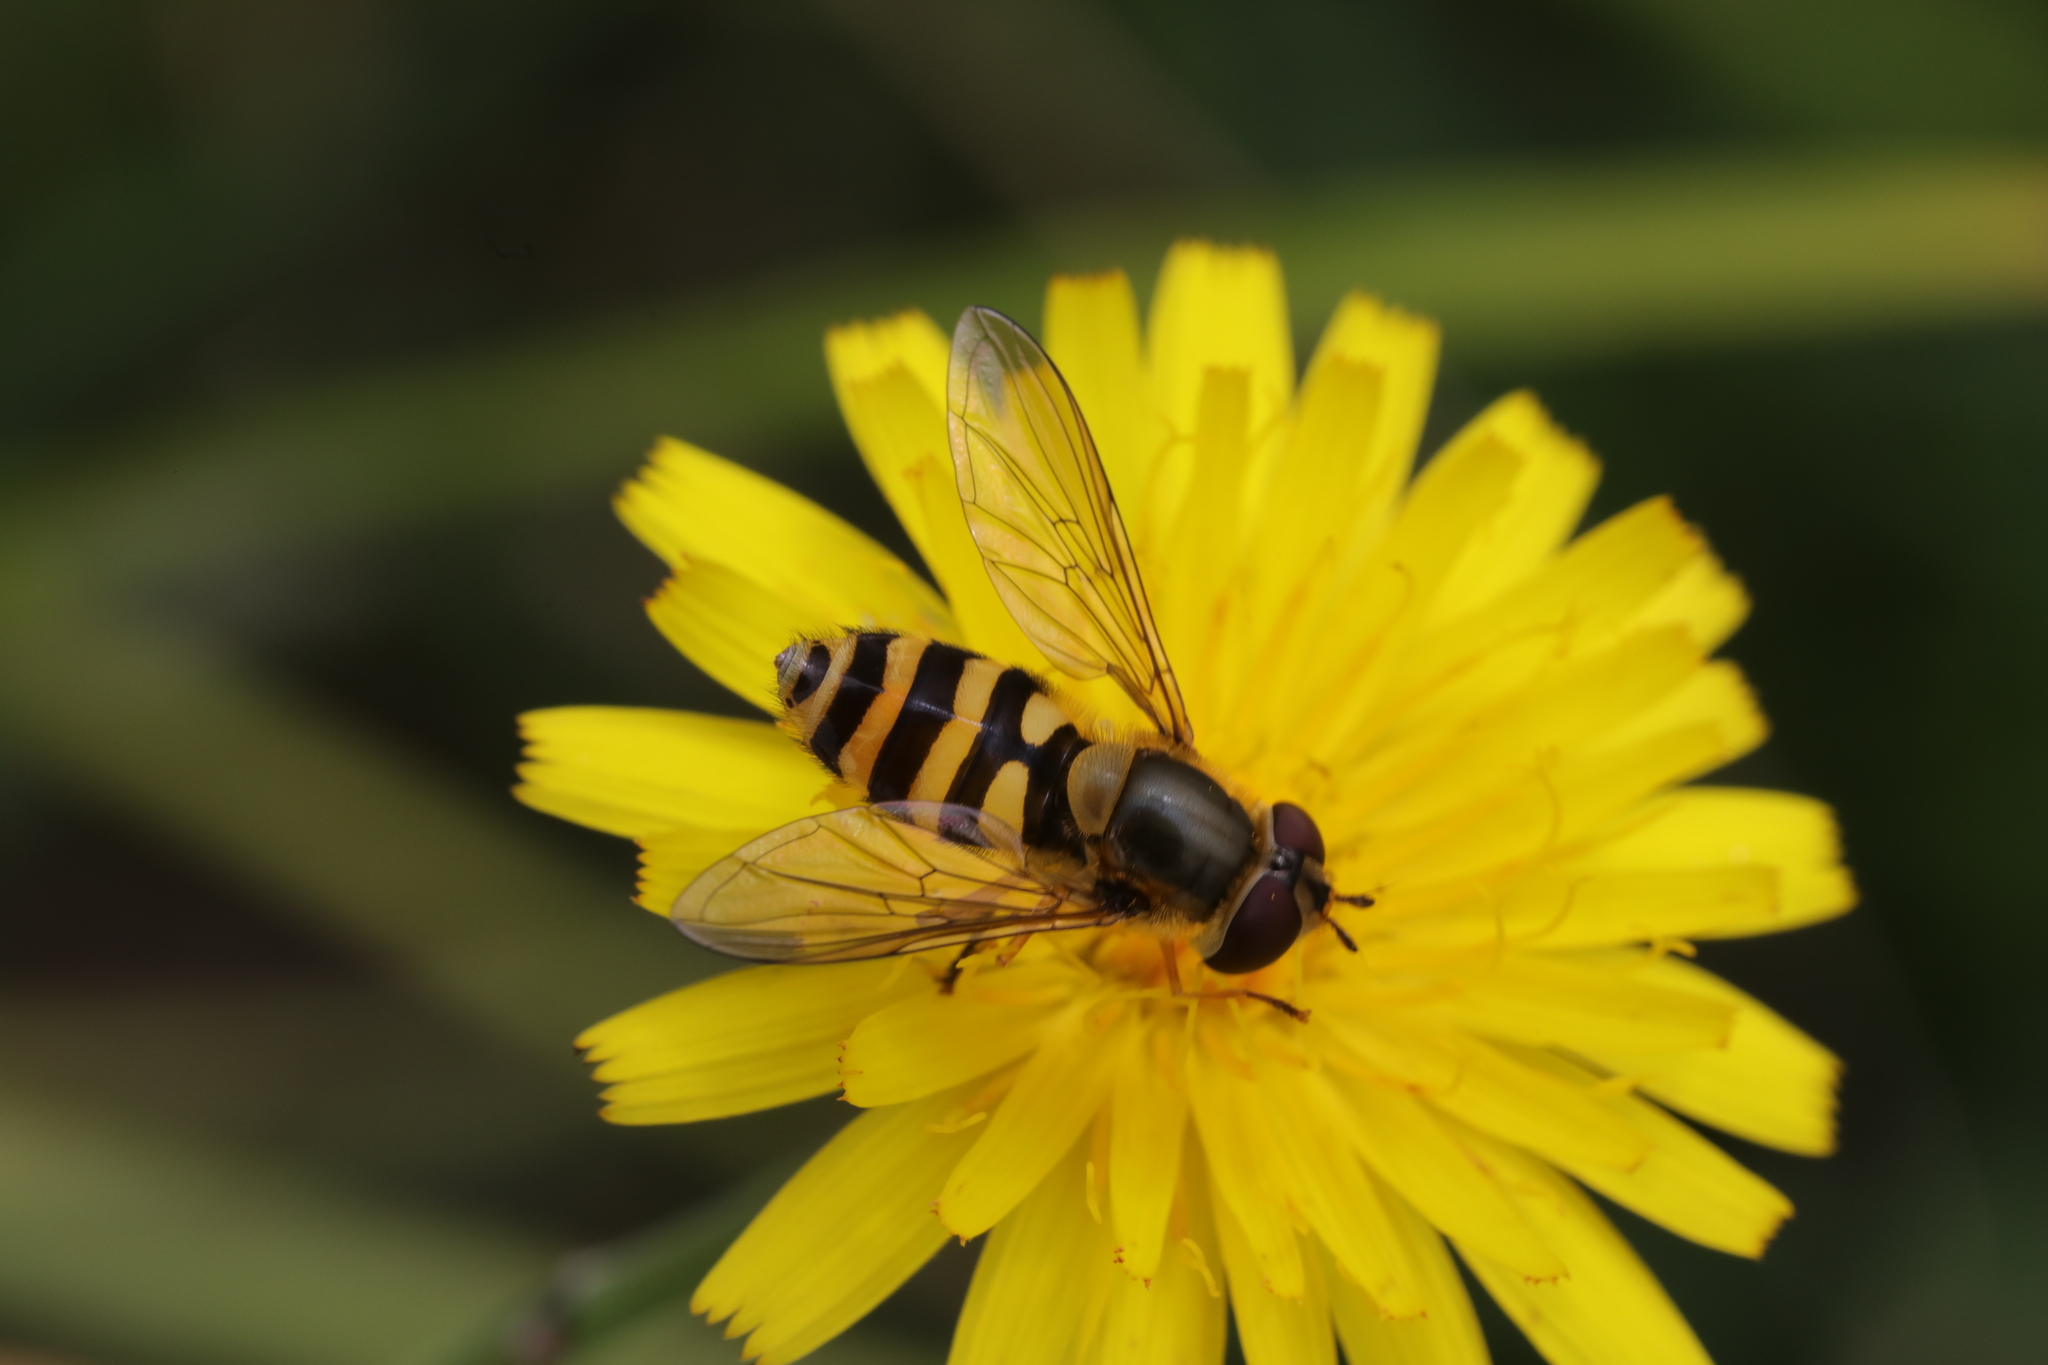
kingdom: Animalia
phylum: Arthropoda
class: Insecta
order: Diptera
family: Syrphidae
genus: Syrphus
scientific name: Syrphus ribesii
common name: Common flower fly
